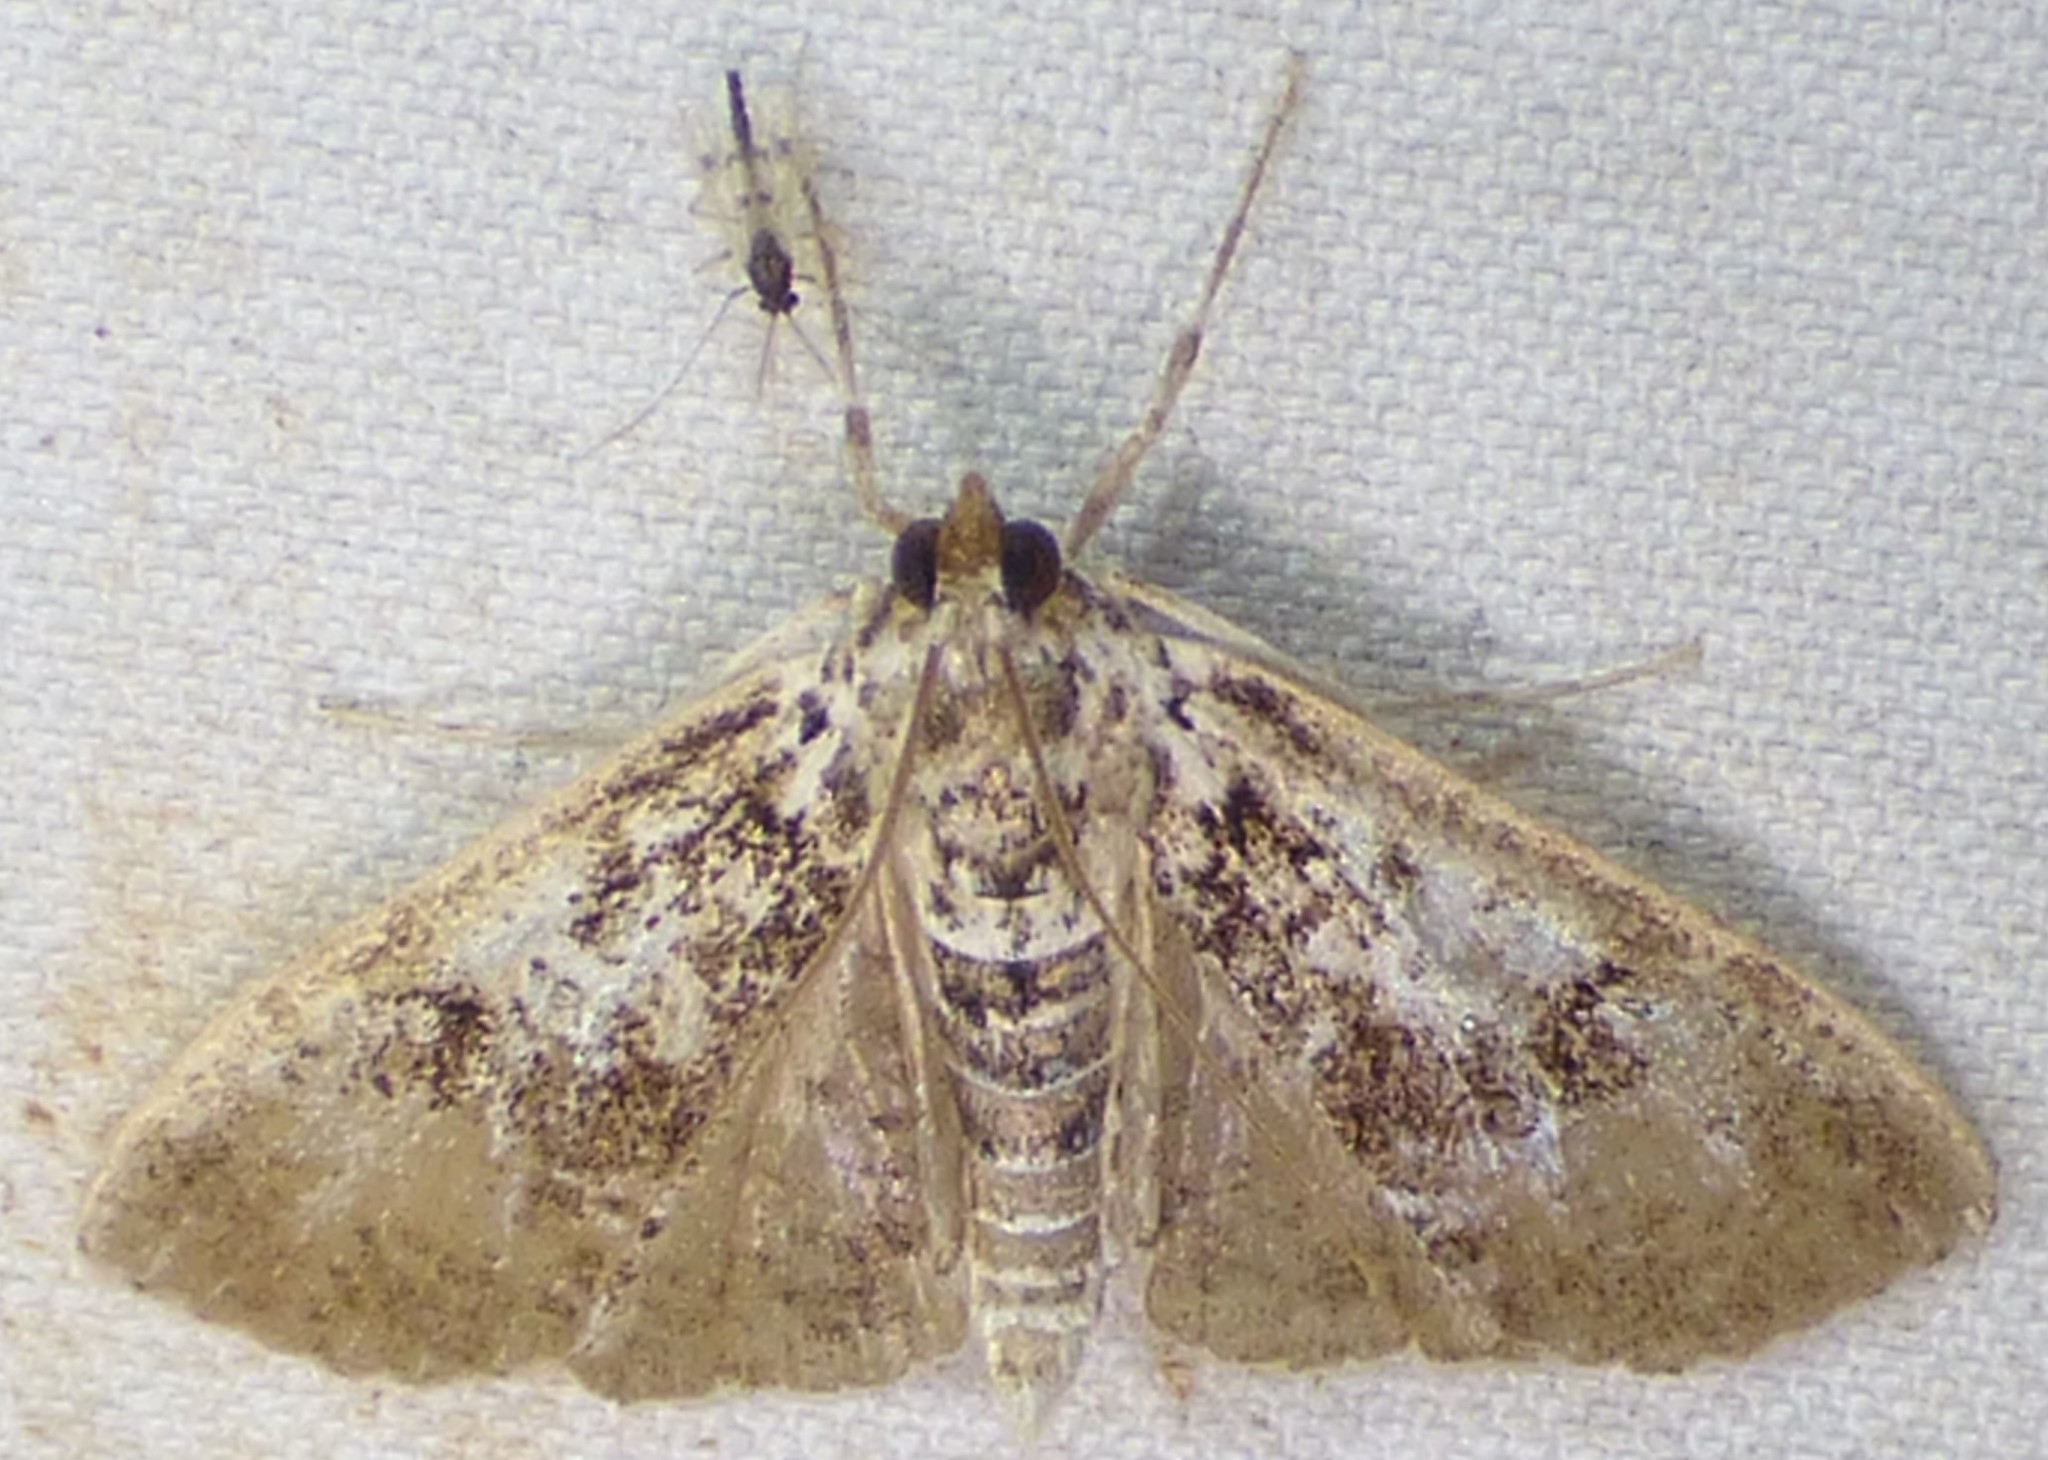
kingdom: Animalia
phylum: Arthropoda
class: Insecta
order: Lepidoptera
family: Crambidae
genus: Palpita
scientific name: Palpita magniferalis
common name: Splendid palpita moth
